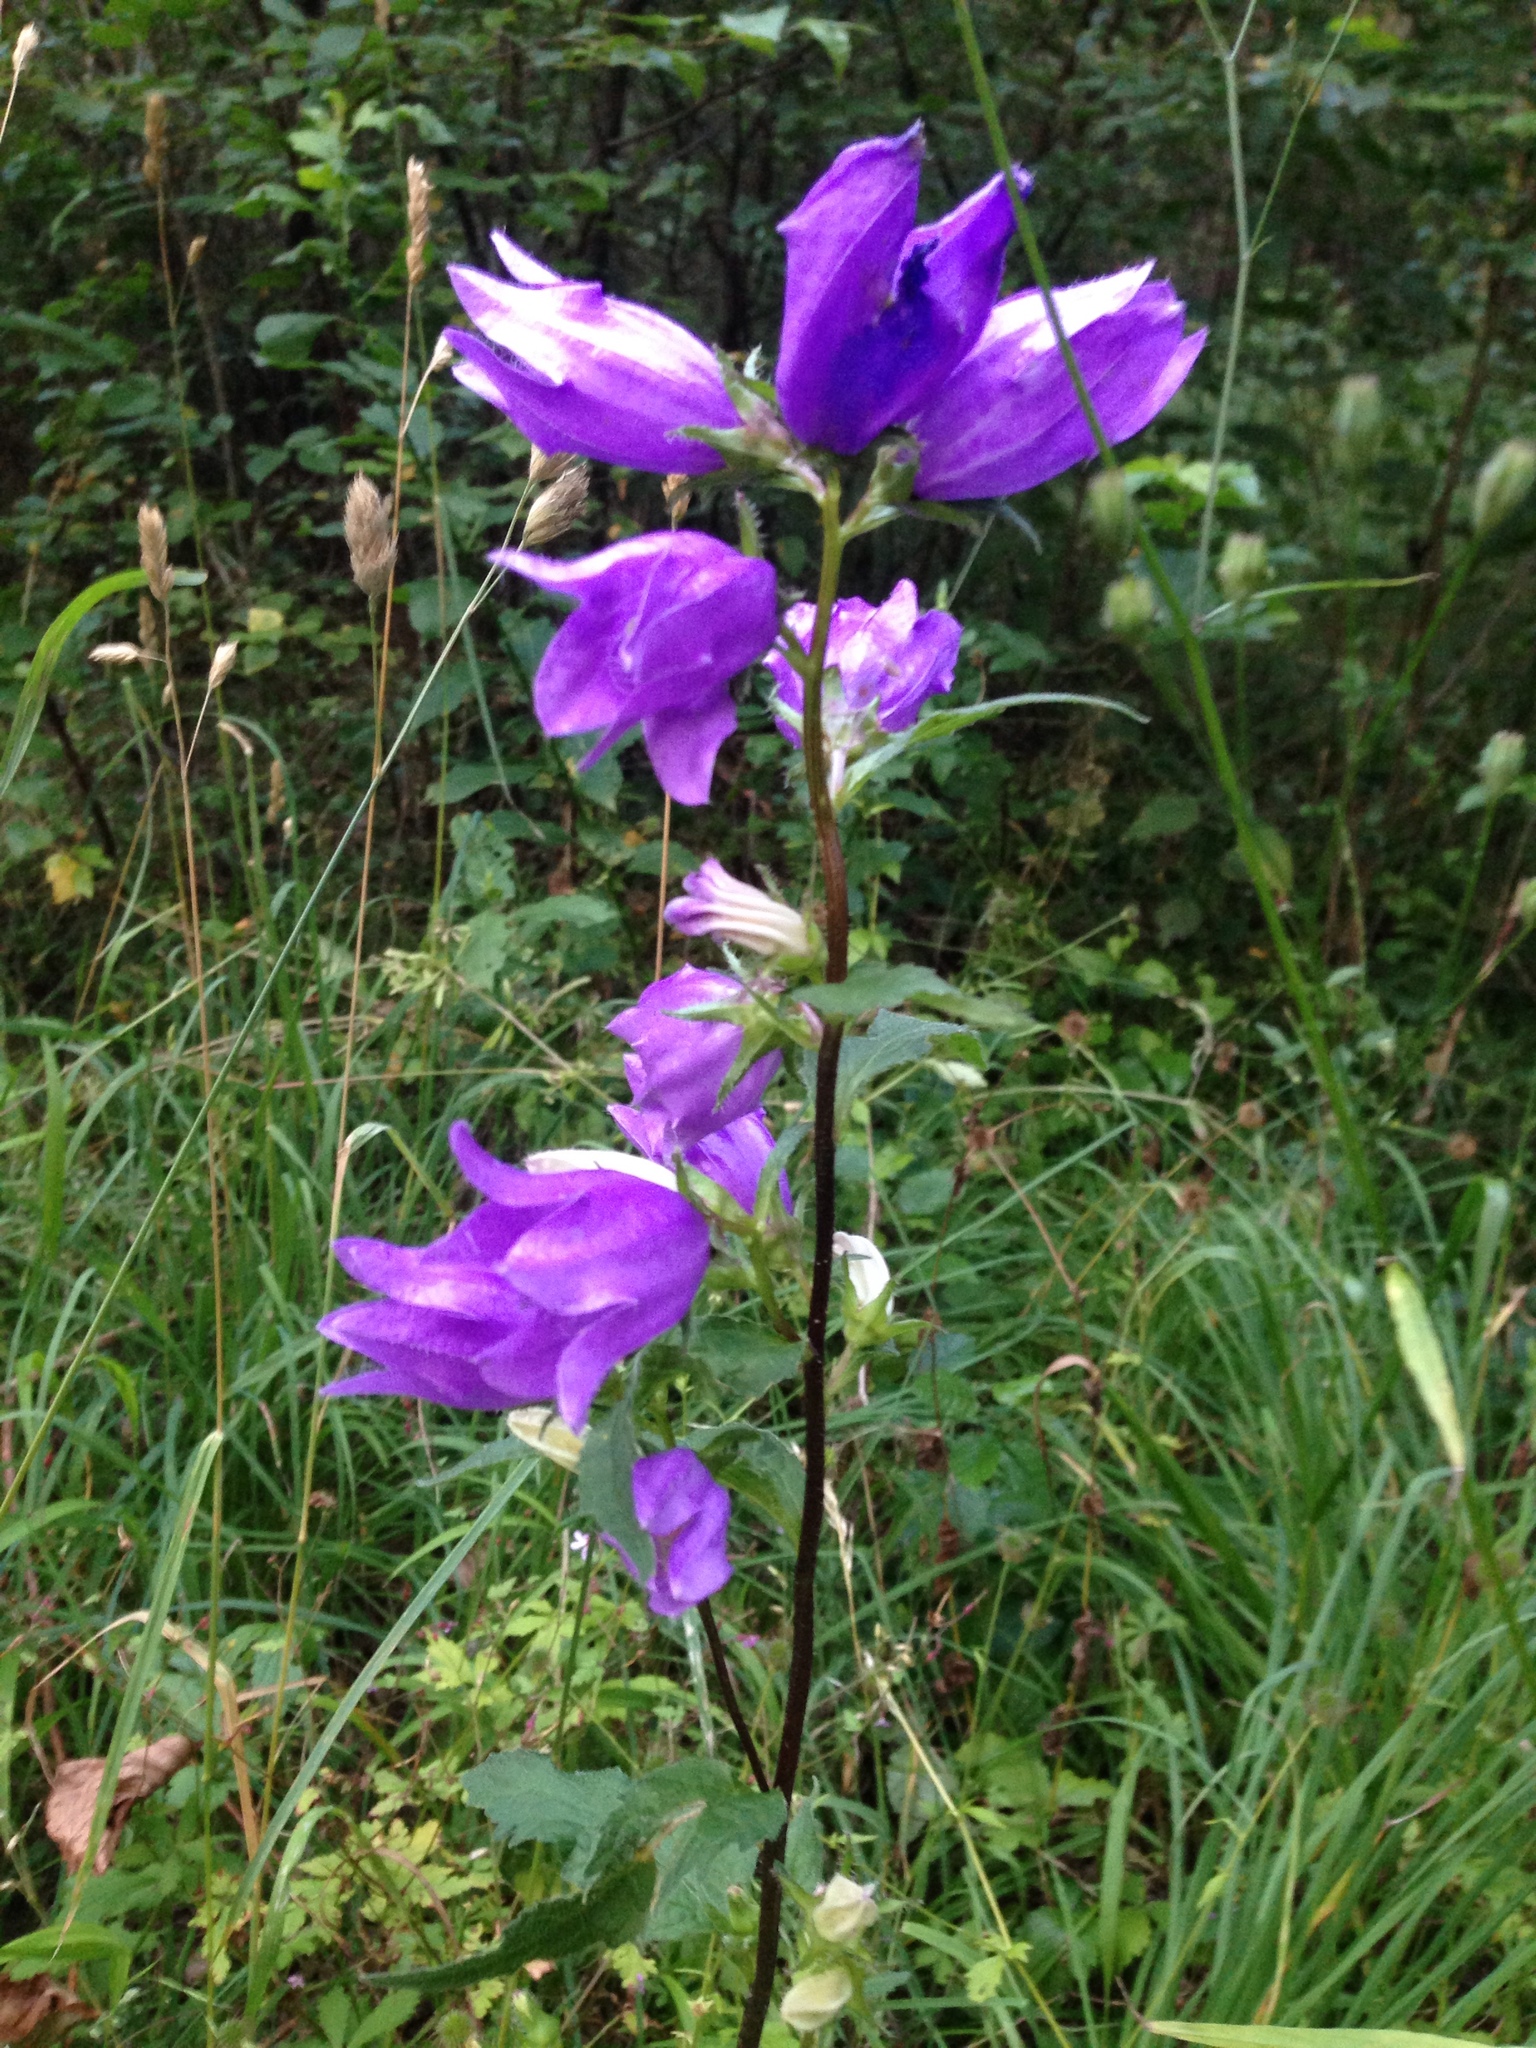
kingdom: Plantae
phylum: Tracheophyta
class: Magnoliopsida
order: Asterales
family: Campanulaceae
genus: Campanula
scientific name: Campanula trachelium
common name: Nettle-leaved bellflower
